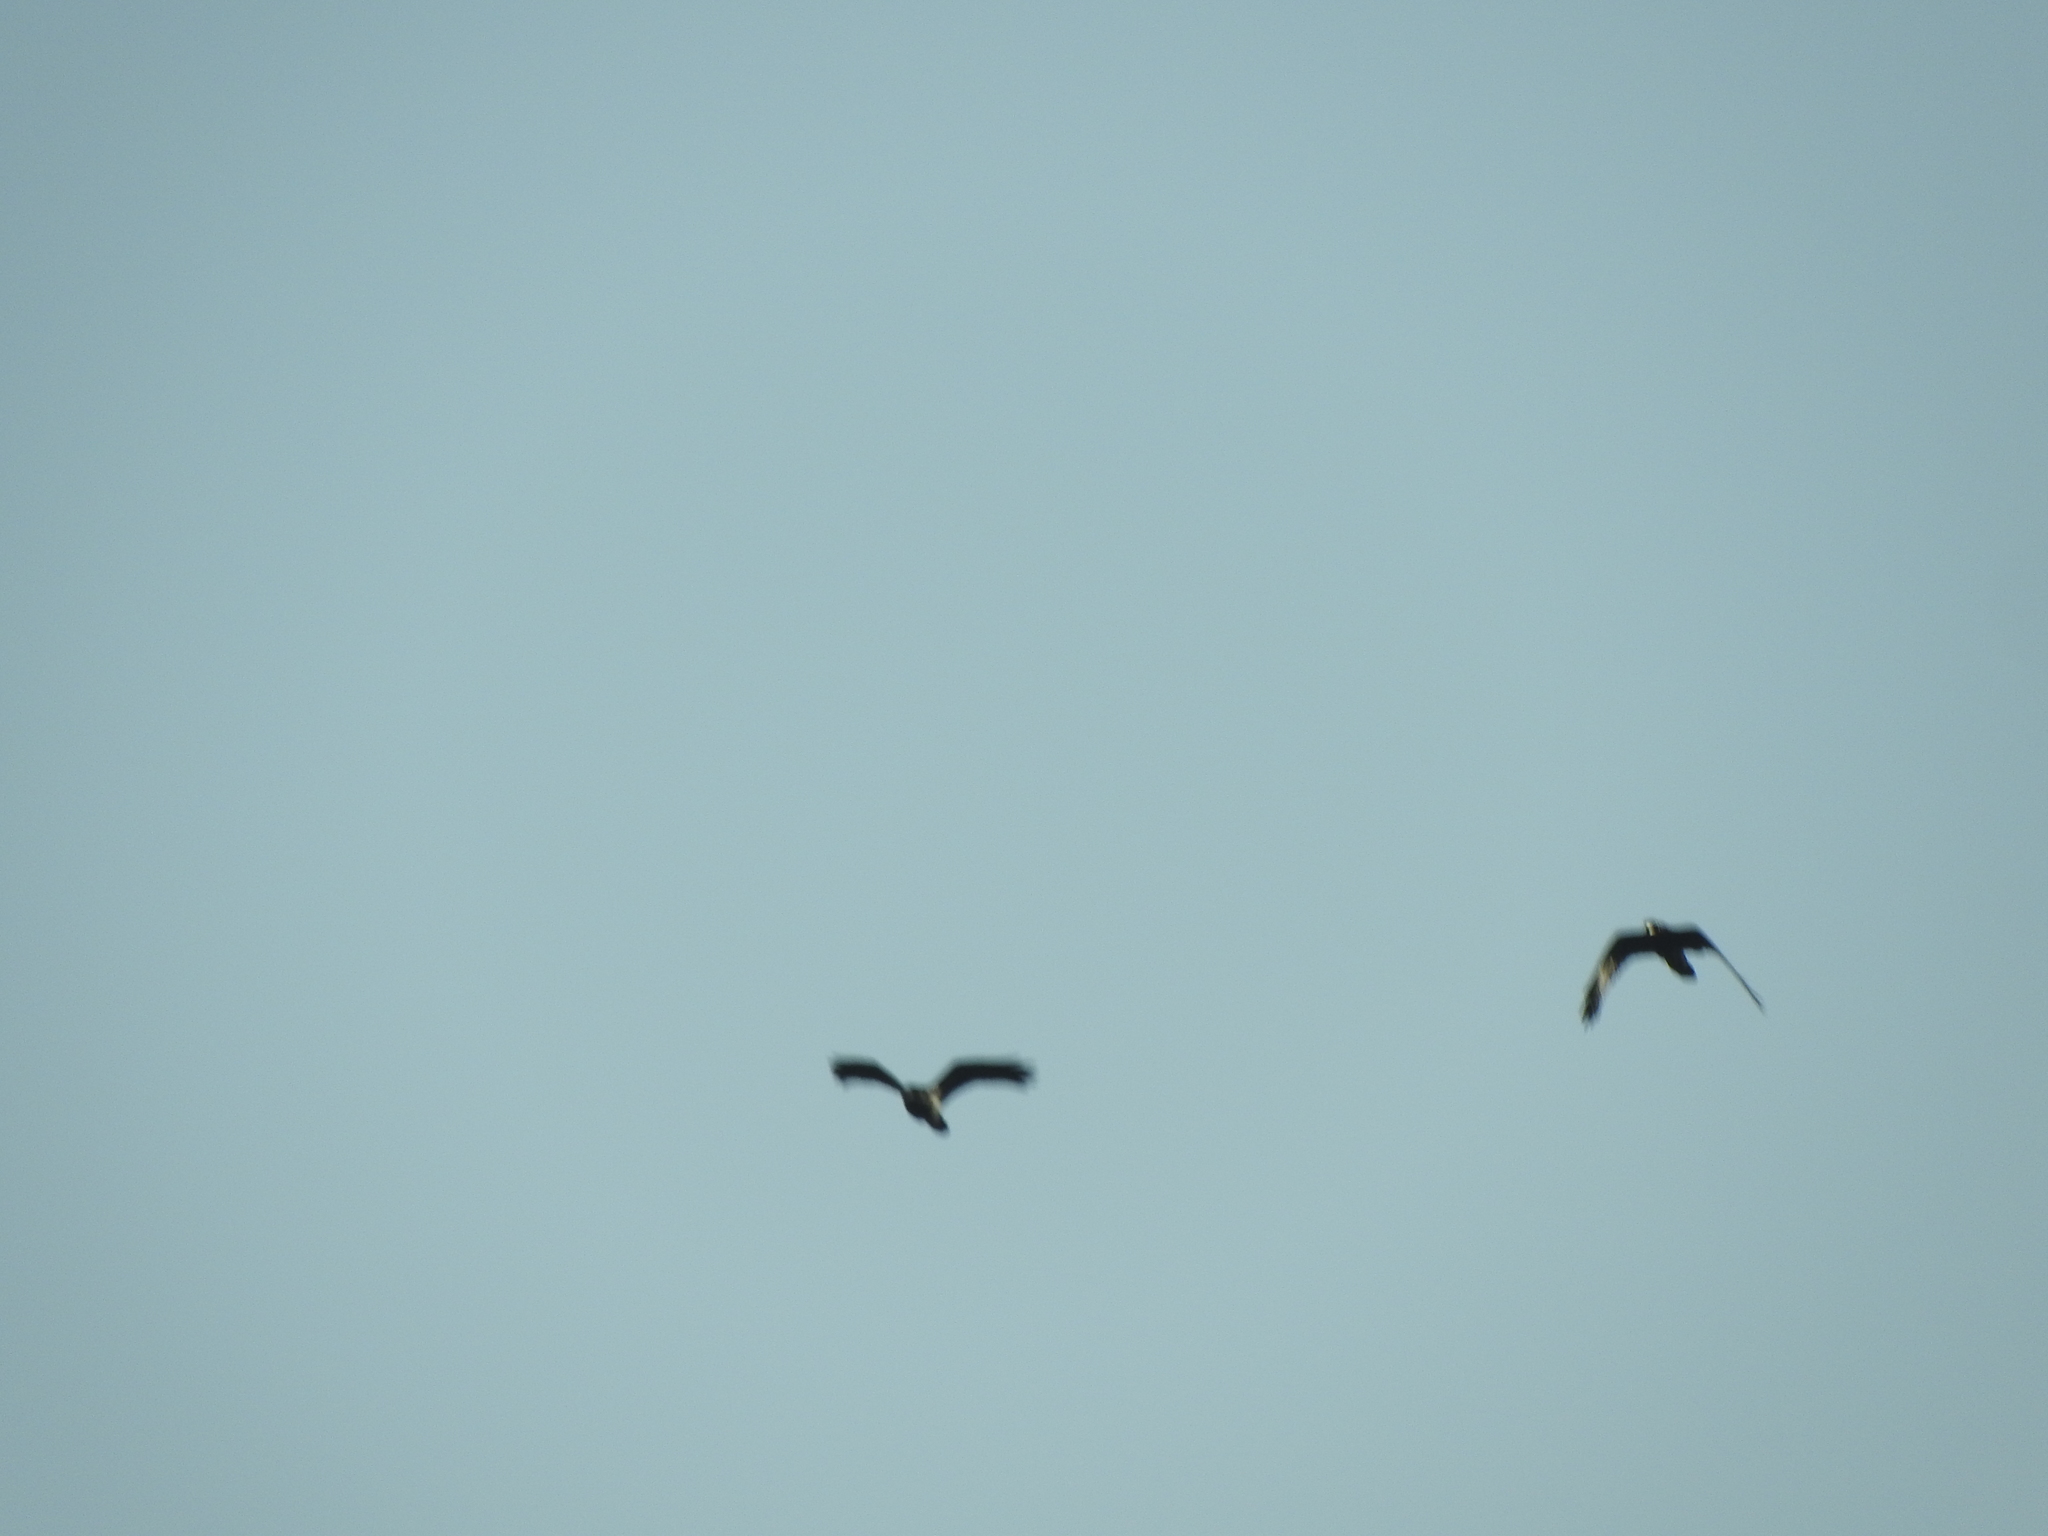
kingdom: Animalia
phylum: Chordata
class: Aves
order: Passeriformes
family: Corvidae
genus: Corvus
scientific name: Corvus corax
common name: Common raven
